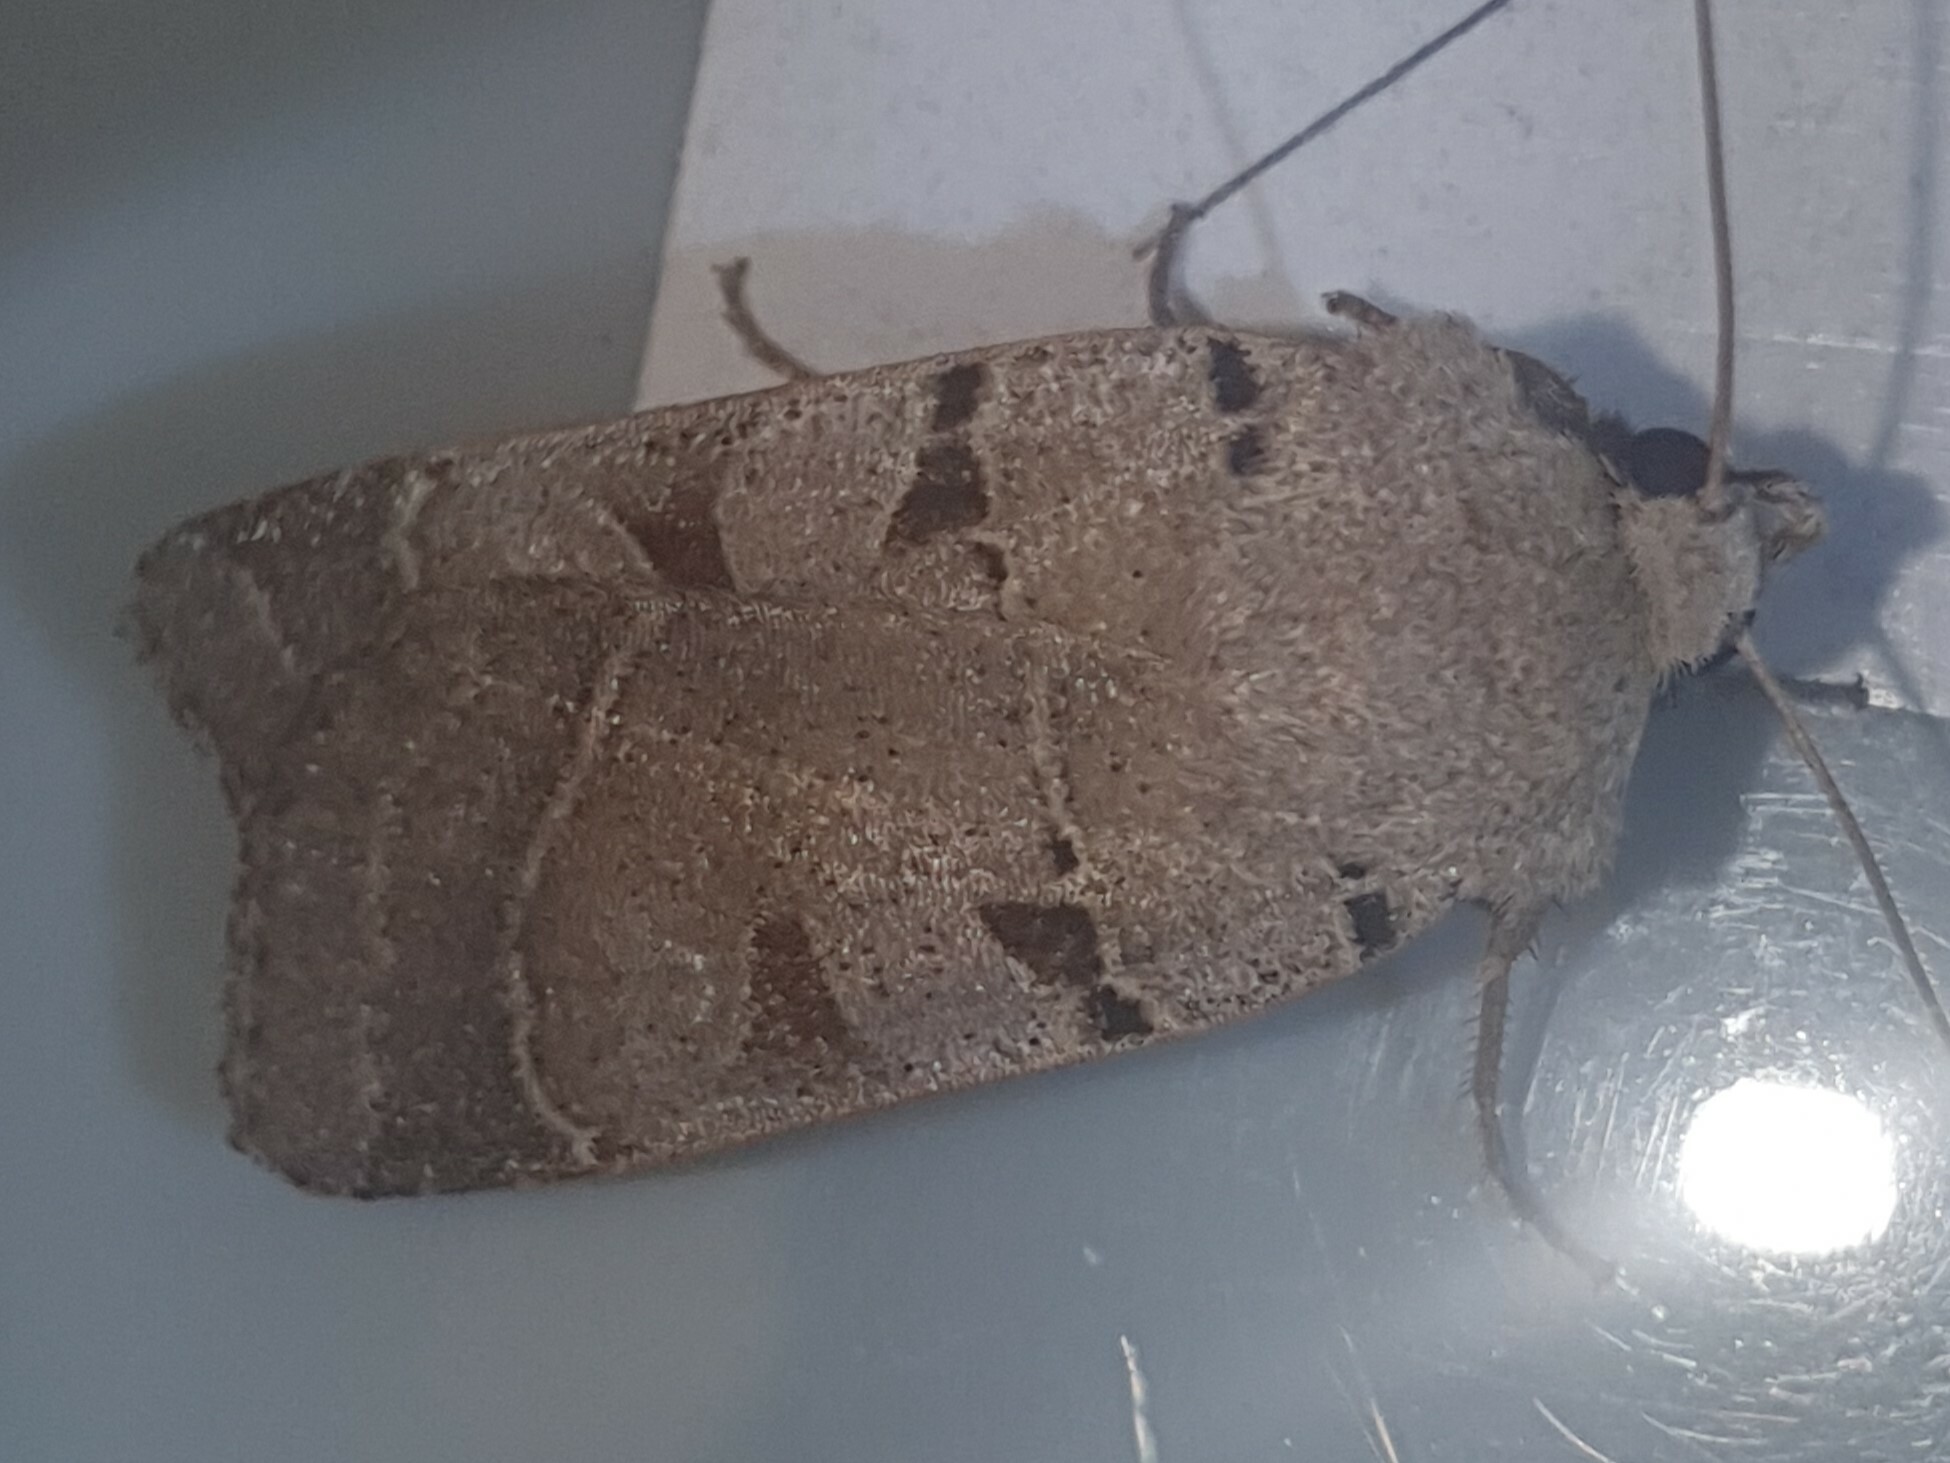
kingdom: Animalia
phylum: Arthropoda
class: Insecta
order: Lepidoptera
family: Noctuidae
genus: Eugnorisma
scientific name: Eugnorisma glareosa
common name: Autumnal rustic
